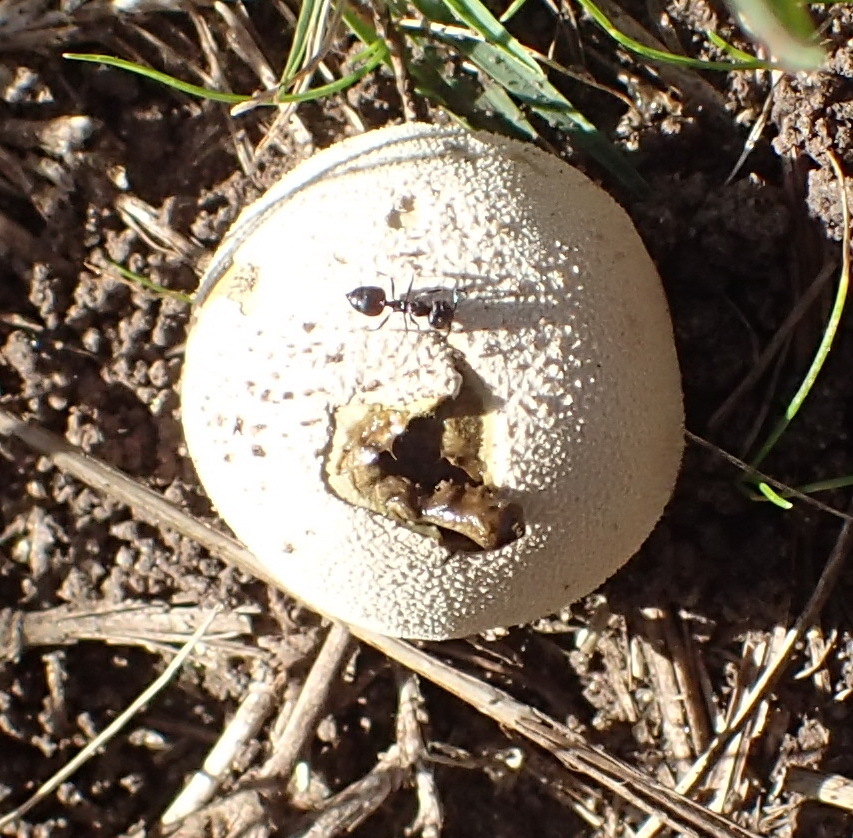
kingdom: Fungi
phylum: Basidiomycota
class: Agaricomycetes
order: Agaricales
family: Lycoperdaceae
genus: Lycoperdon
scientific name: Lycoperdon pratense
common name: Meadow puffball
